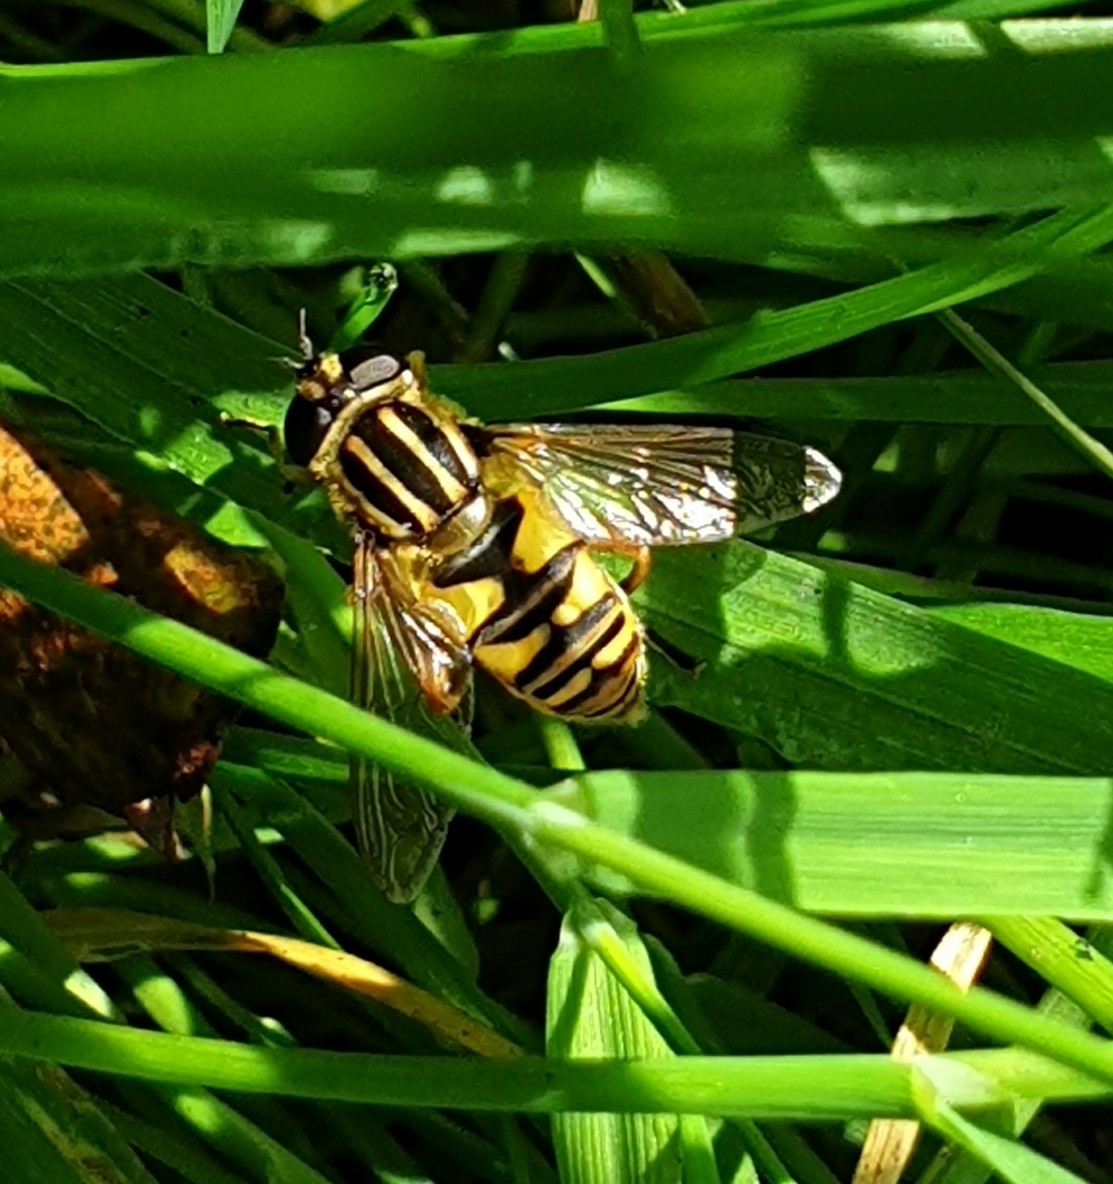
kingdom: Animalia
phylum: Arthropoda
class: Insecta
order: Diptera
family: Syrphidae
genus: Helophilus
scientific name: Helophilus pendulus
